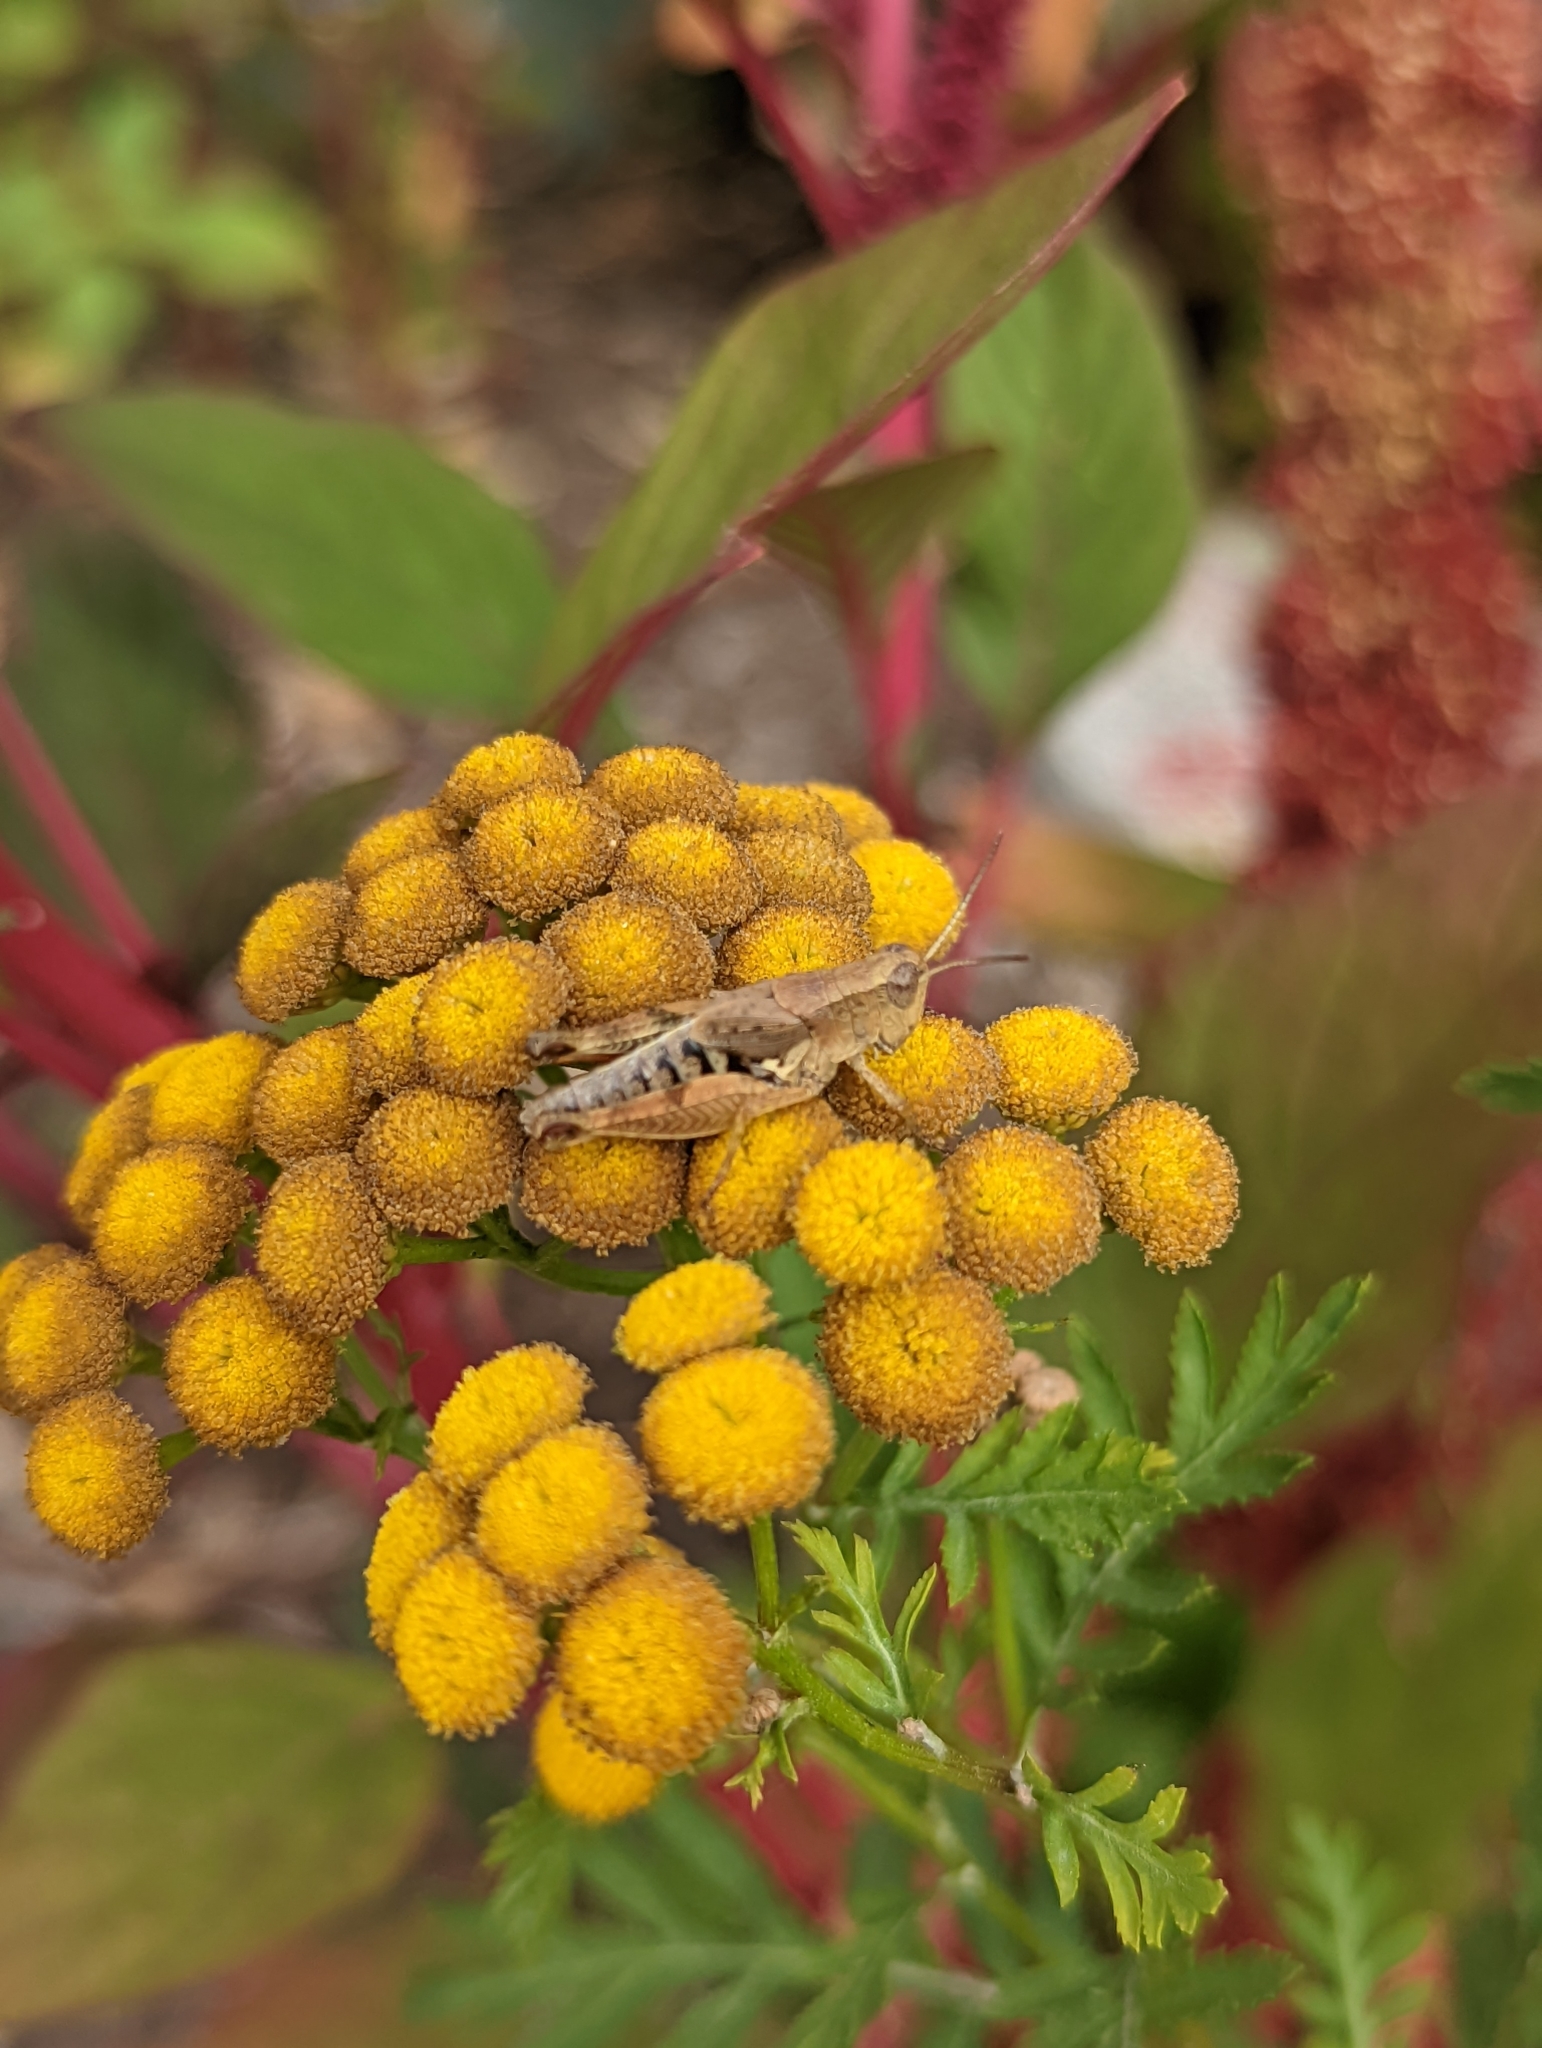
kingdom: Animalia
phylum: Arthropoda
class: Insecta
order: Orthoptera
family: Acrididae
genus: Phaulacridium
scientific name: Phaulacridium vittatum
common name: Wingless grasshopper
